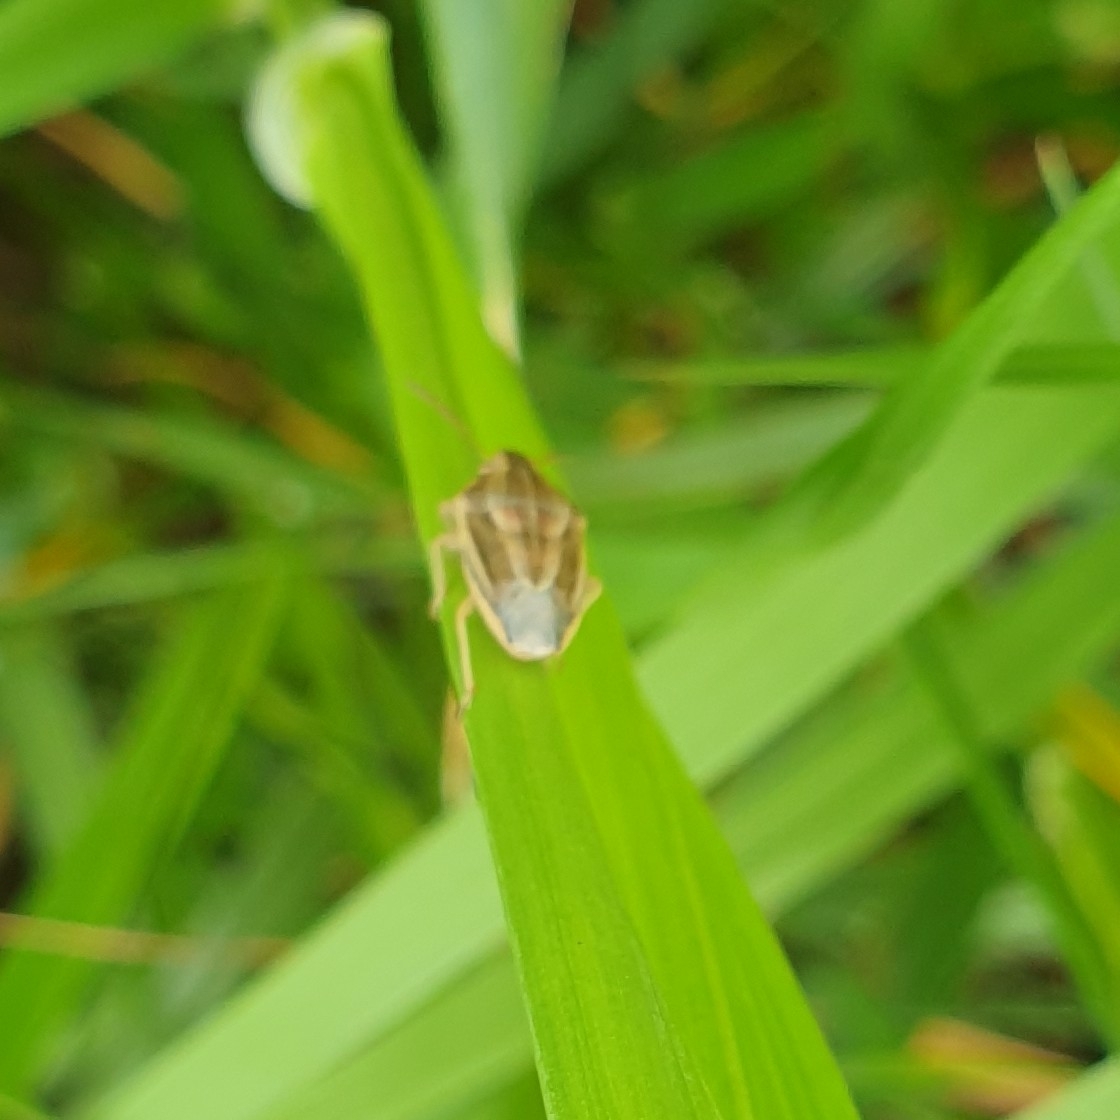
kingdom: Animalia
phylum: Arthropoda
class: Insecta
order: Hemiptera
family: Pentatomidae
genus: Aelia
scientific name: Aelia acuminata
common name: Bishop's mitre
